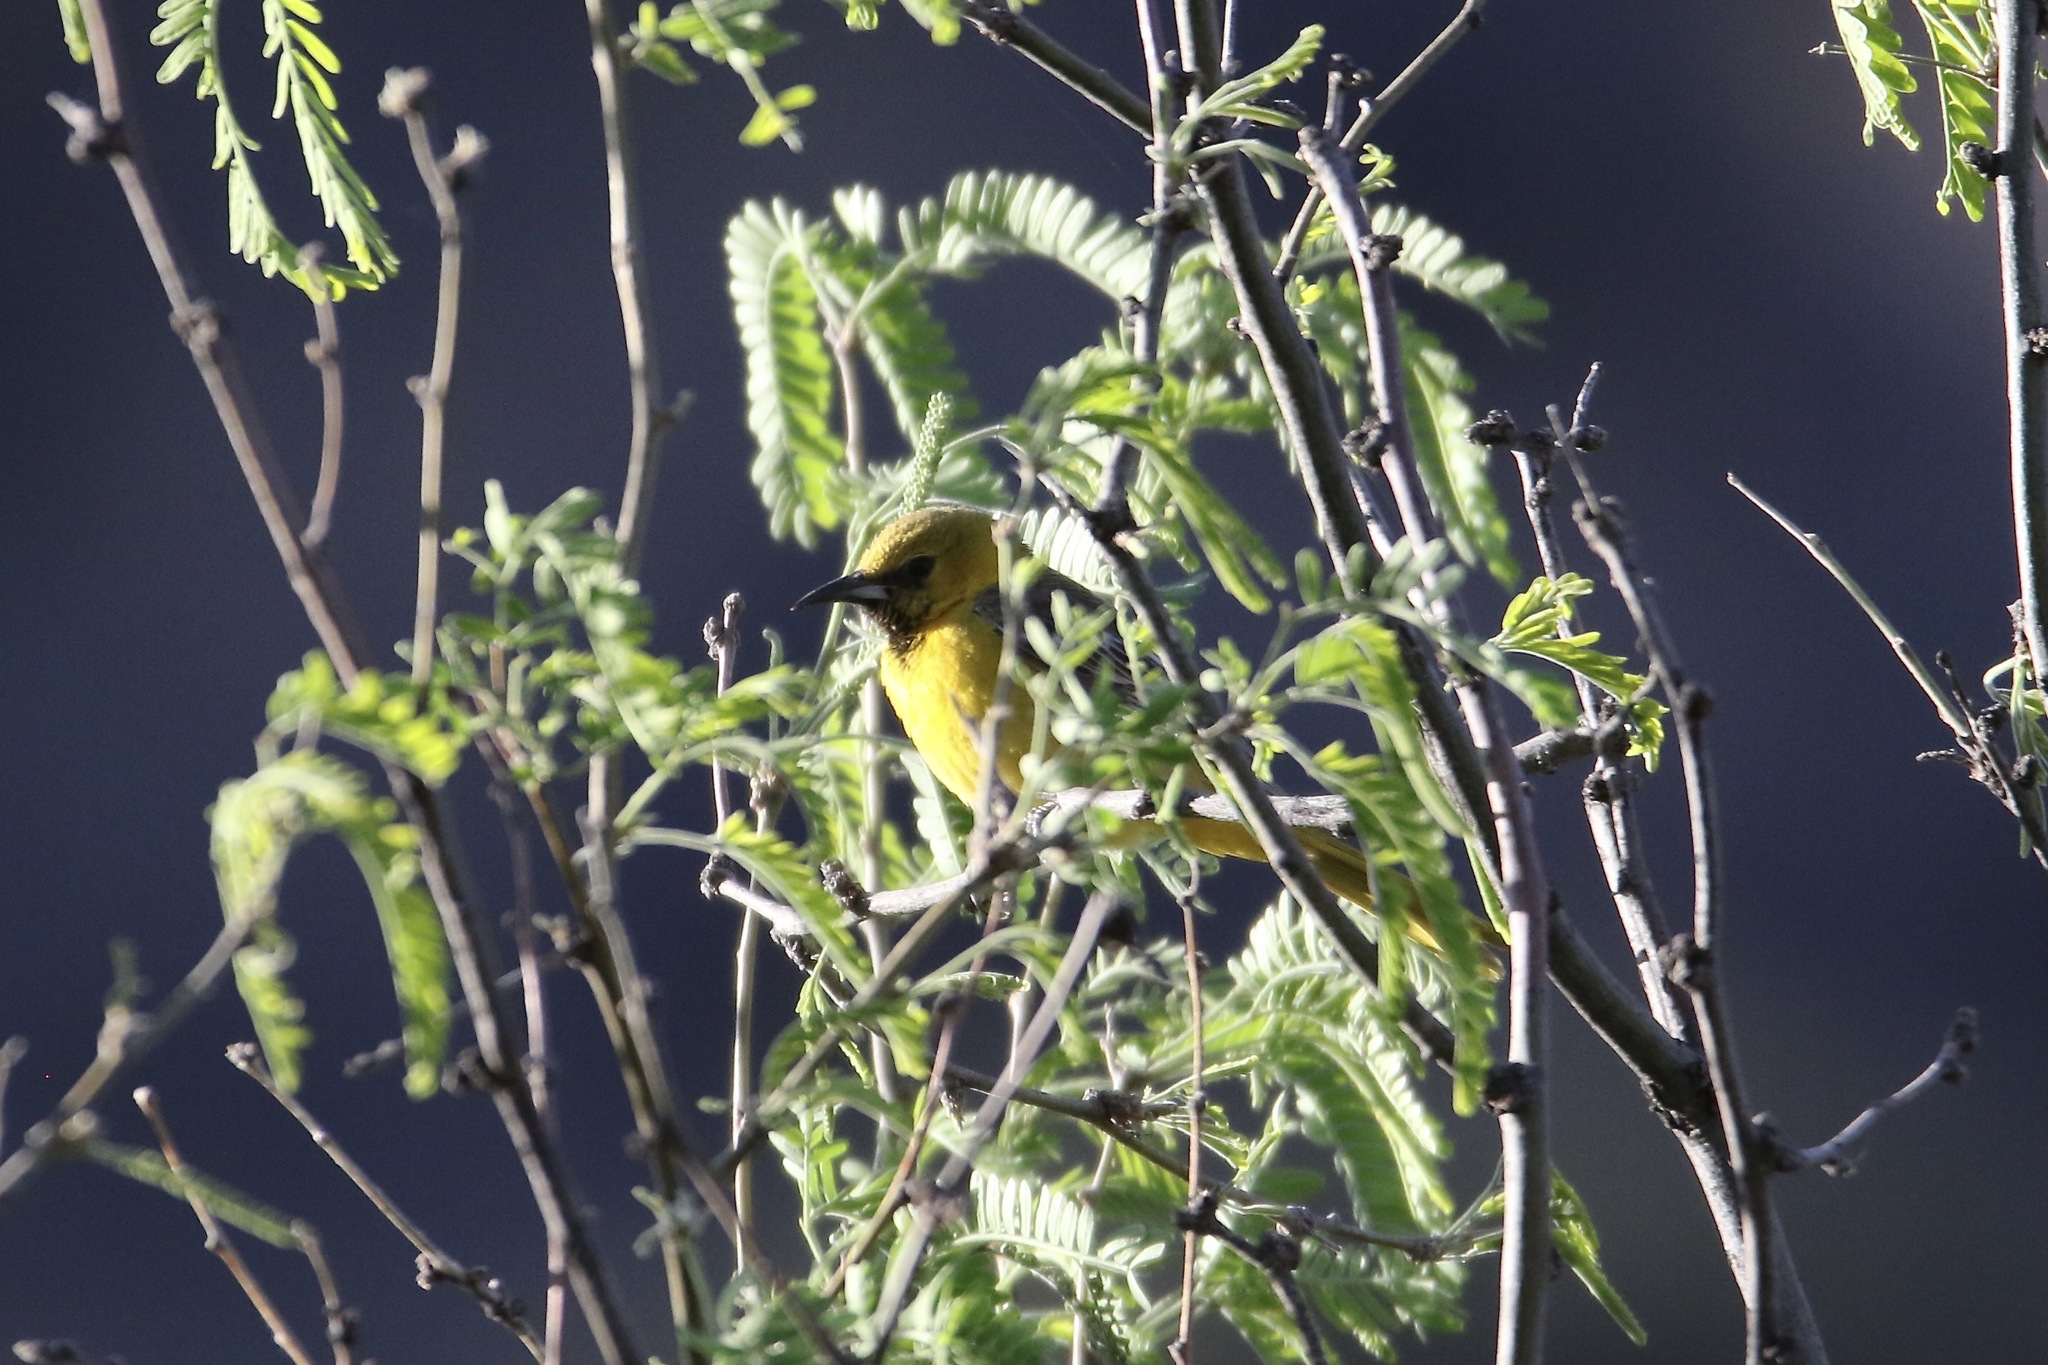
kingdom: Animalia
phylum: Chordata
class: Aves
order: Passeriformes
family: Icteridae
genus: Icterus
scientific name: Icterus cucullatus
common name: Hooded oriole
